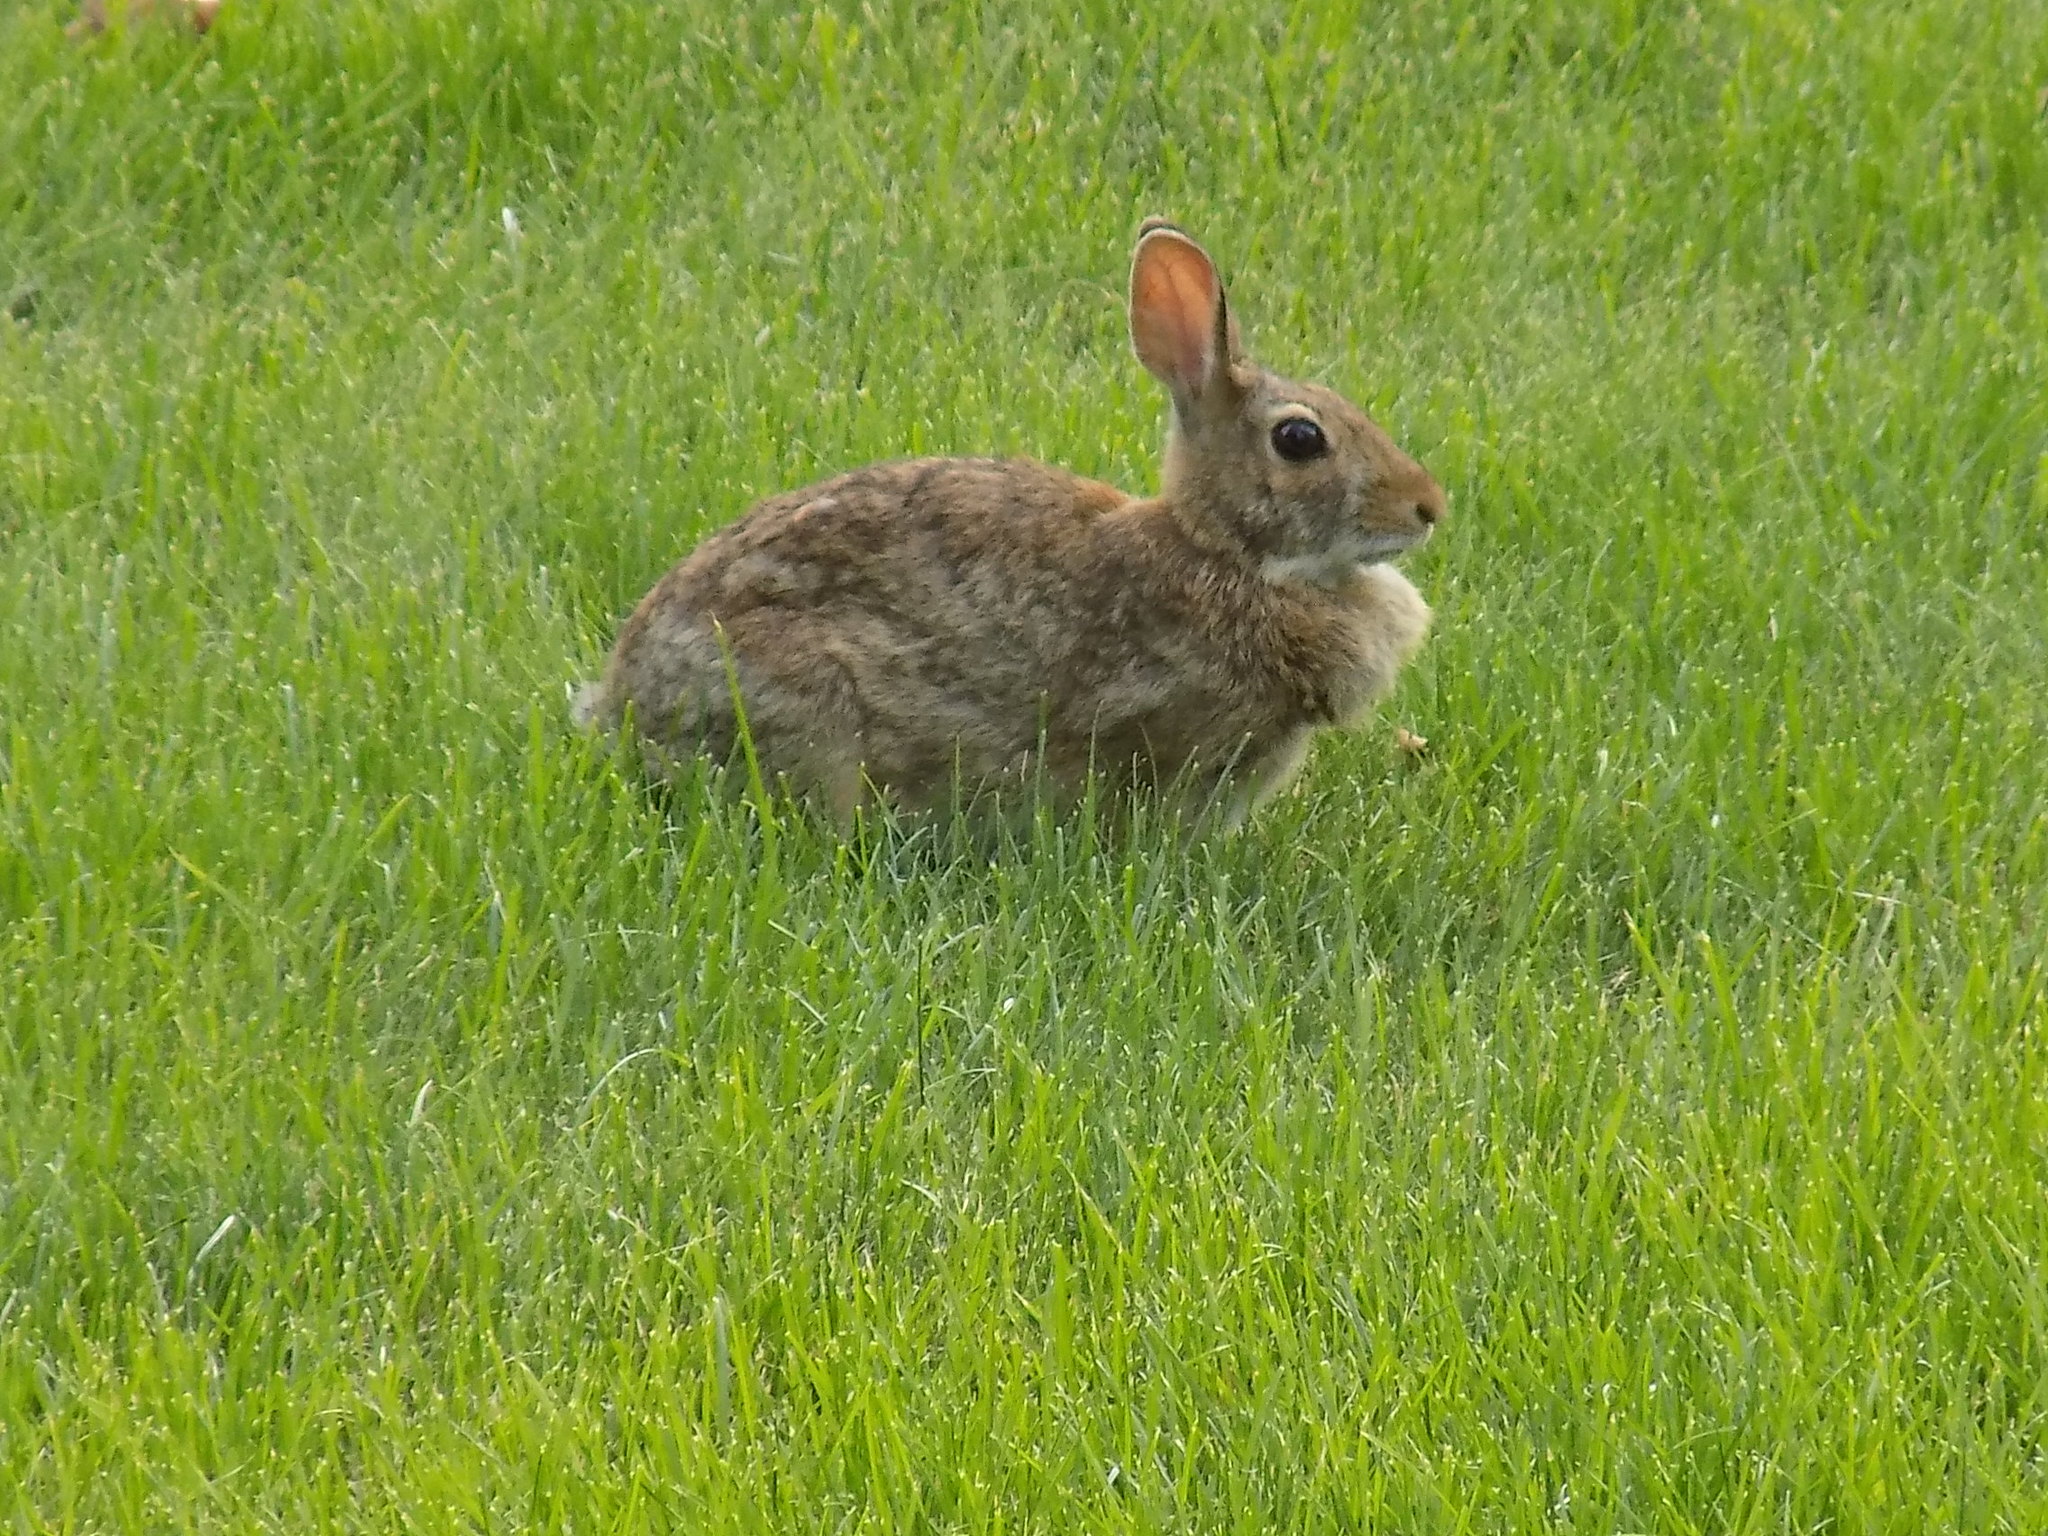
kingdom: Animalia
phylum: Chordata
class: Mammalia
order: Lagomorpha
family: Leporidae
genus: Sylvilagus
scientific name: Sylvilagus floridanus
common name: Eastern cottontail
